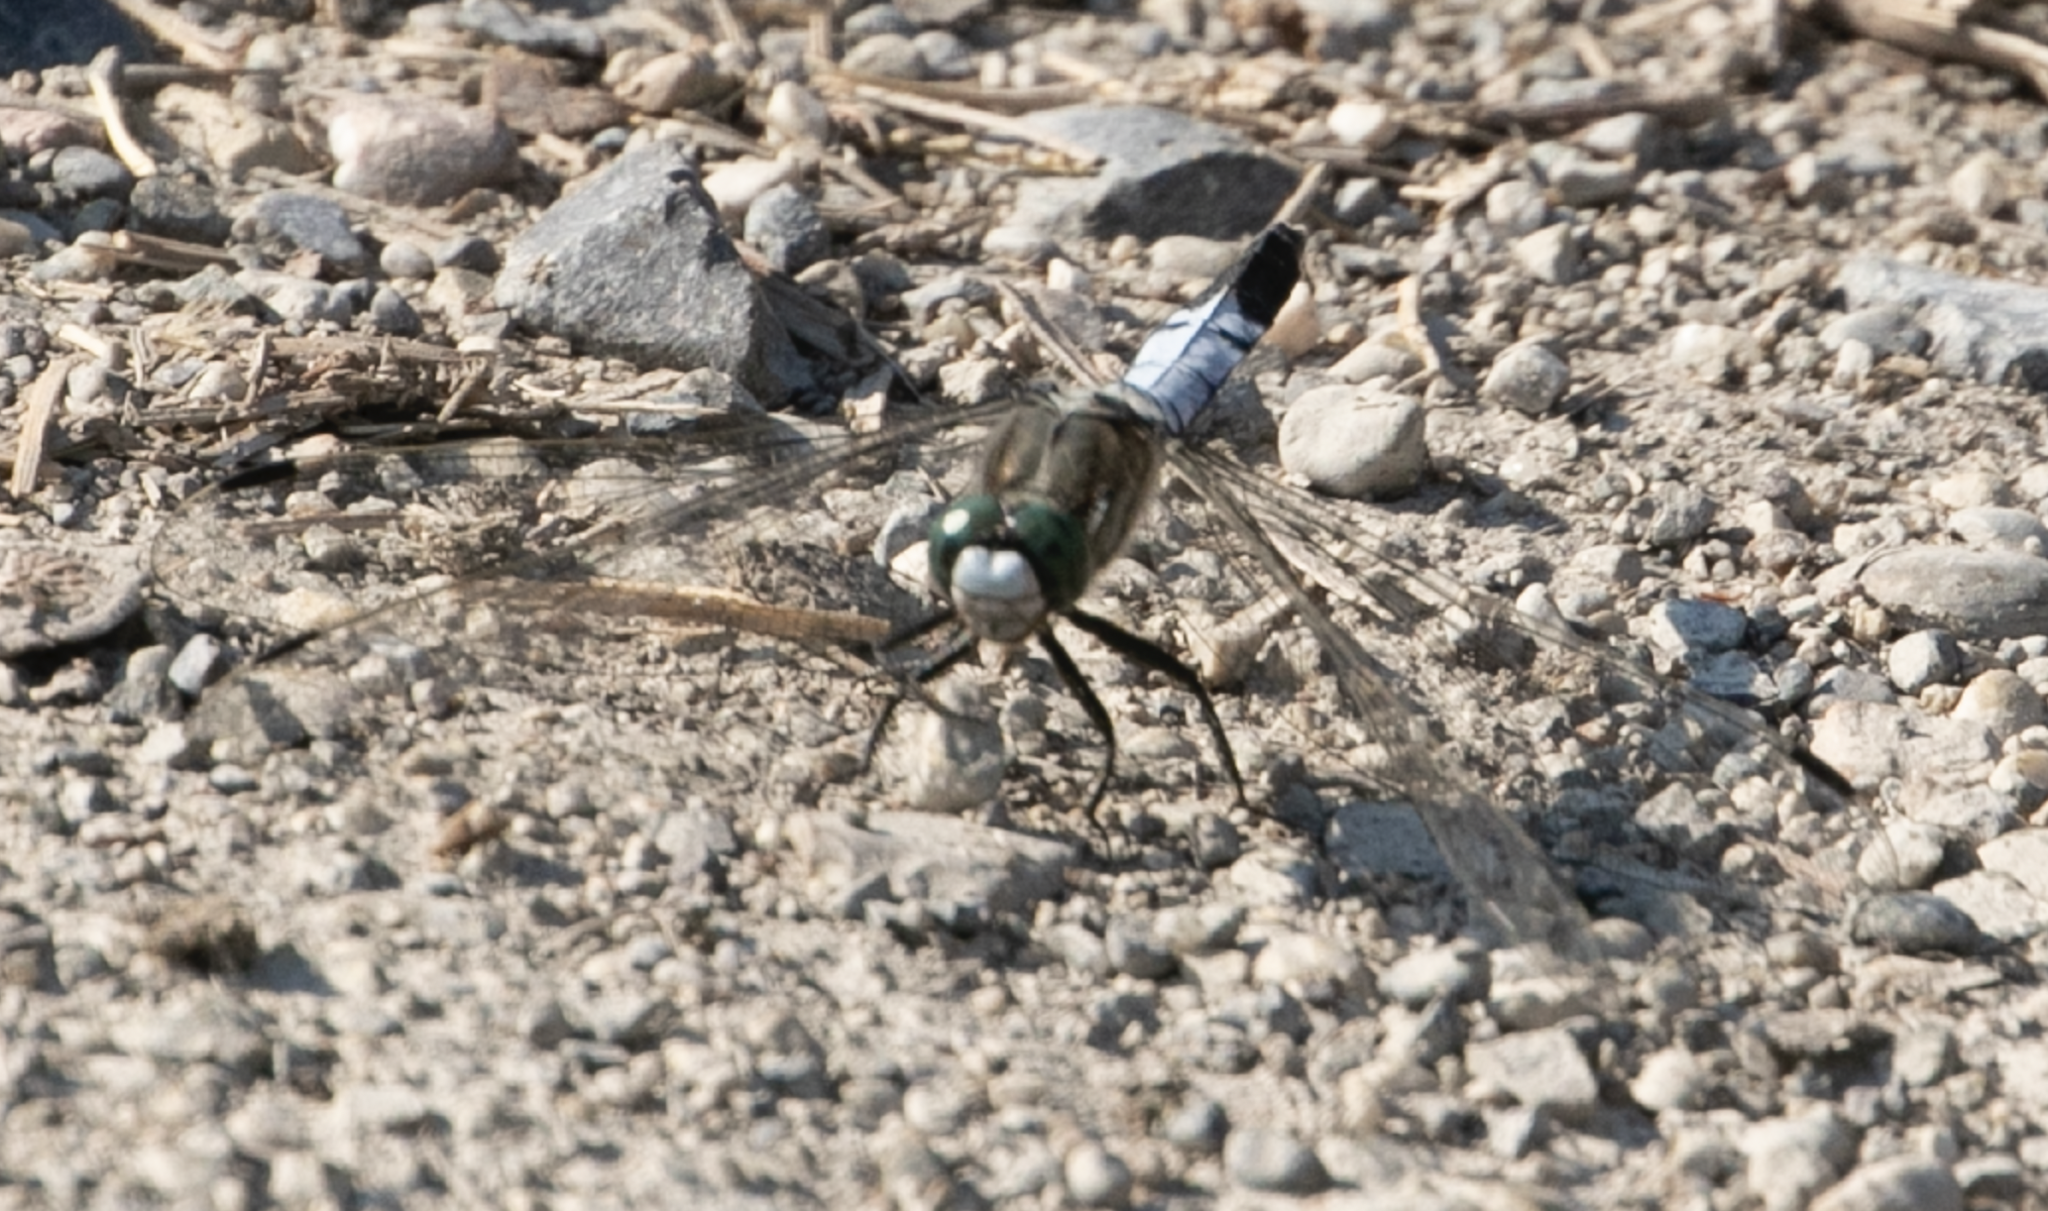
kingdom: Animalia
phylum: Arthropoda
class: Insecta
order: Odonata
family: Libellulidae
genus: Orthetrum
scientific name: Orthetrum albistylum
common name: White-tailed skimmer
